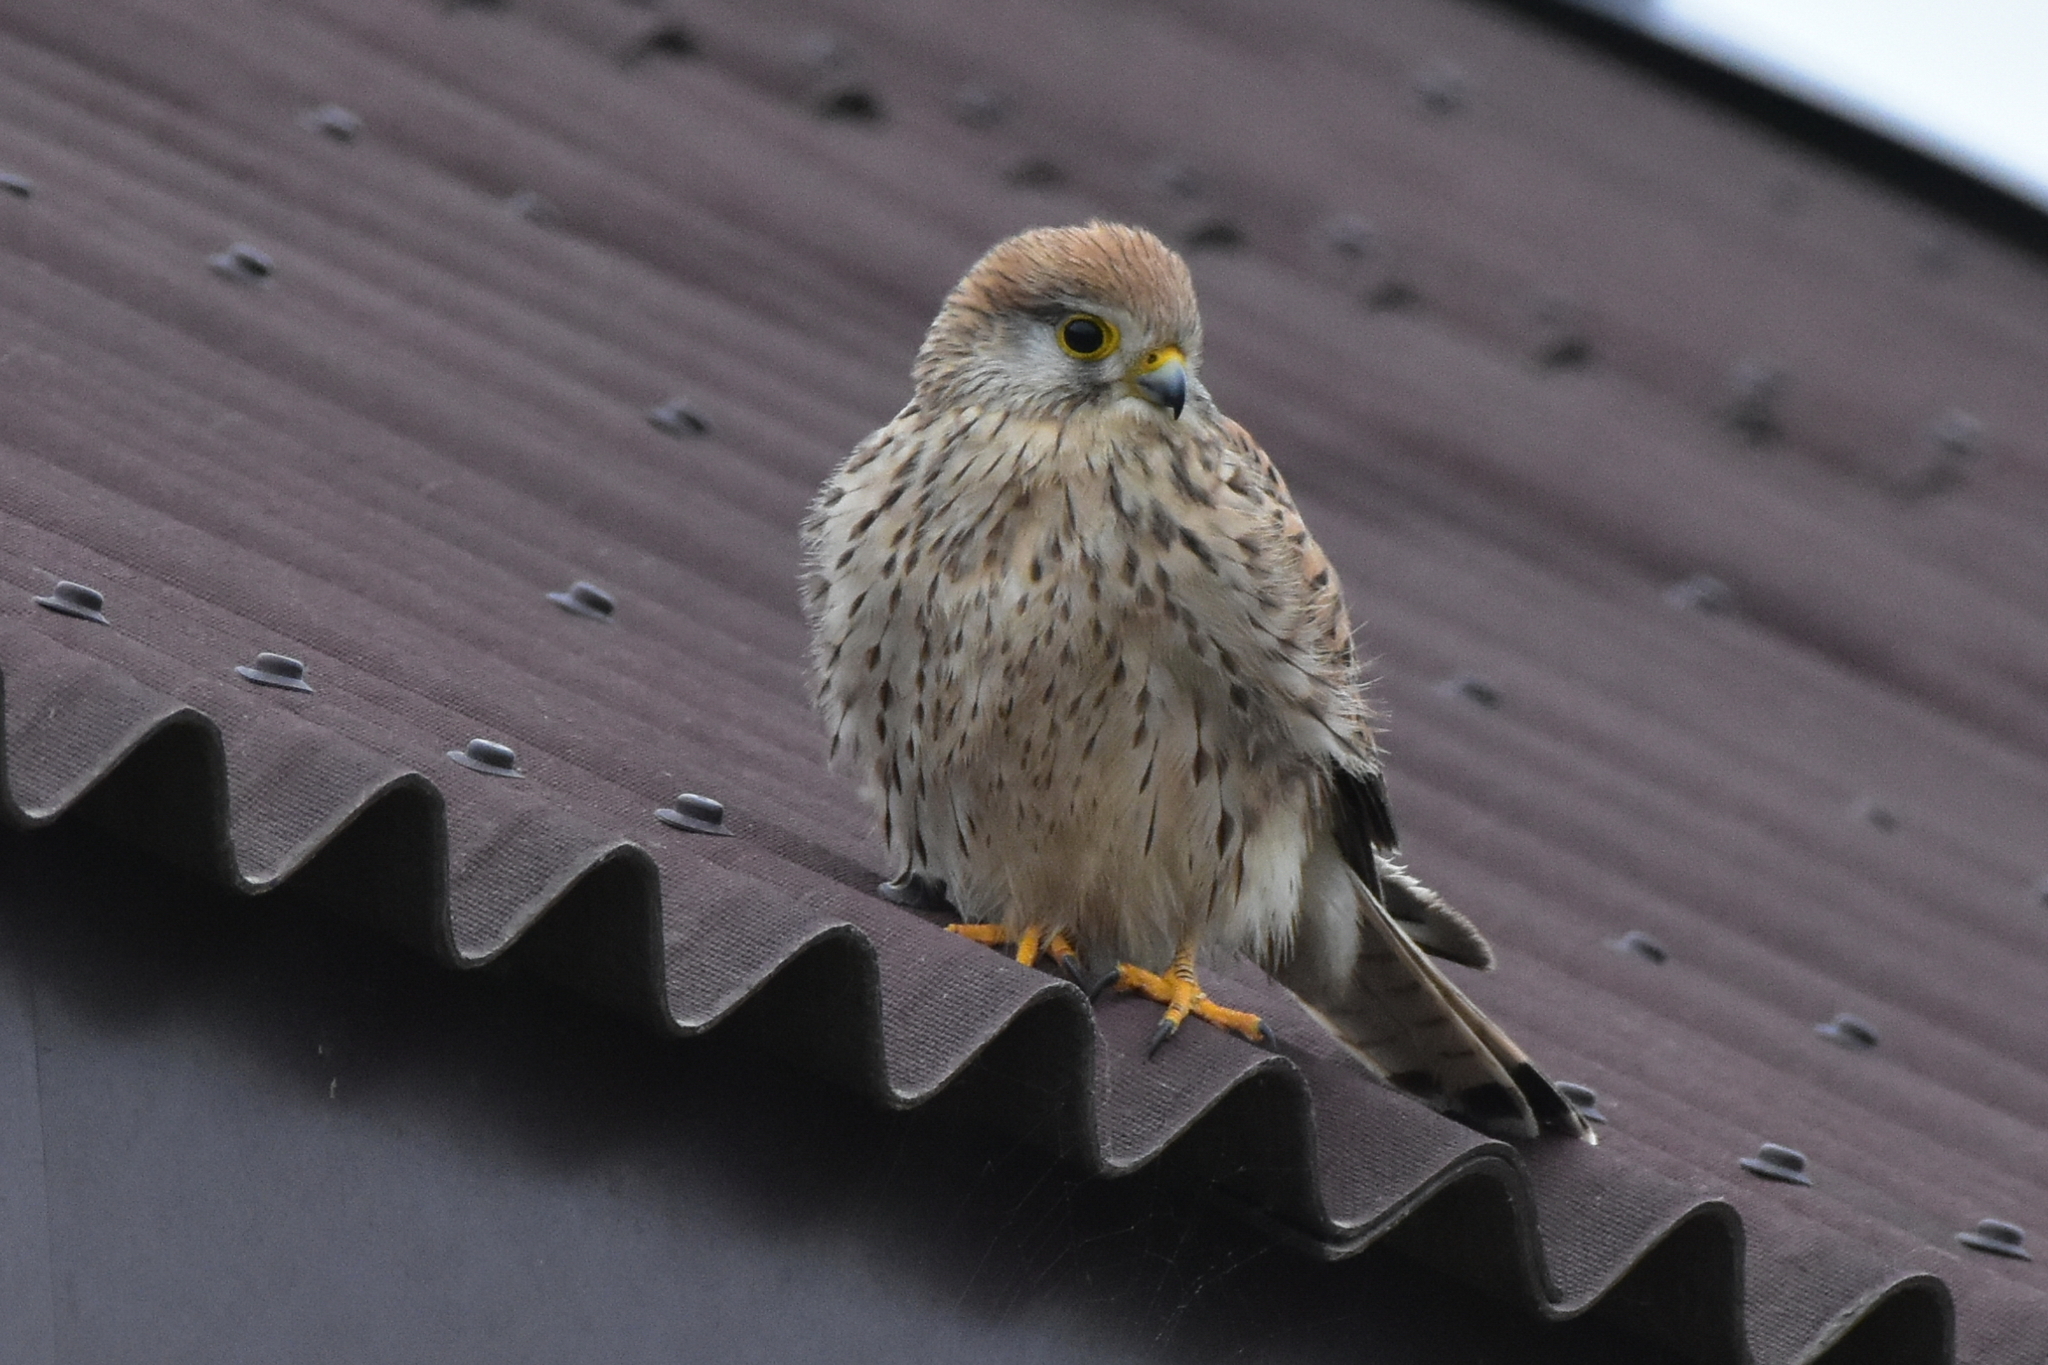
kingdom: Animalia
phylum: Chordata
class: Aves
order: Falconiformes
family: Falconidae
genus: Falco
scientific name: Falco tinnunculus
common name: Common kestrel
